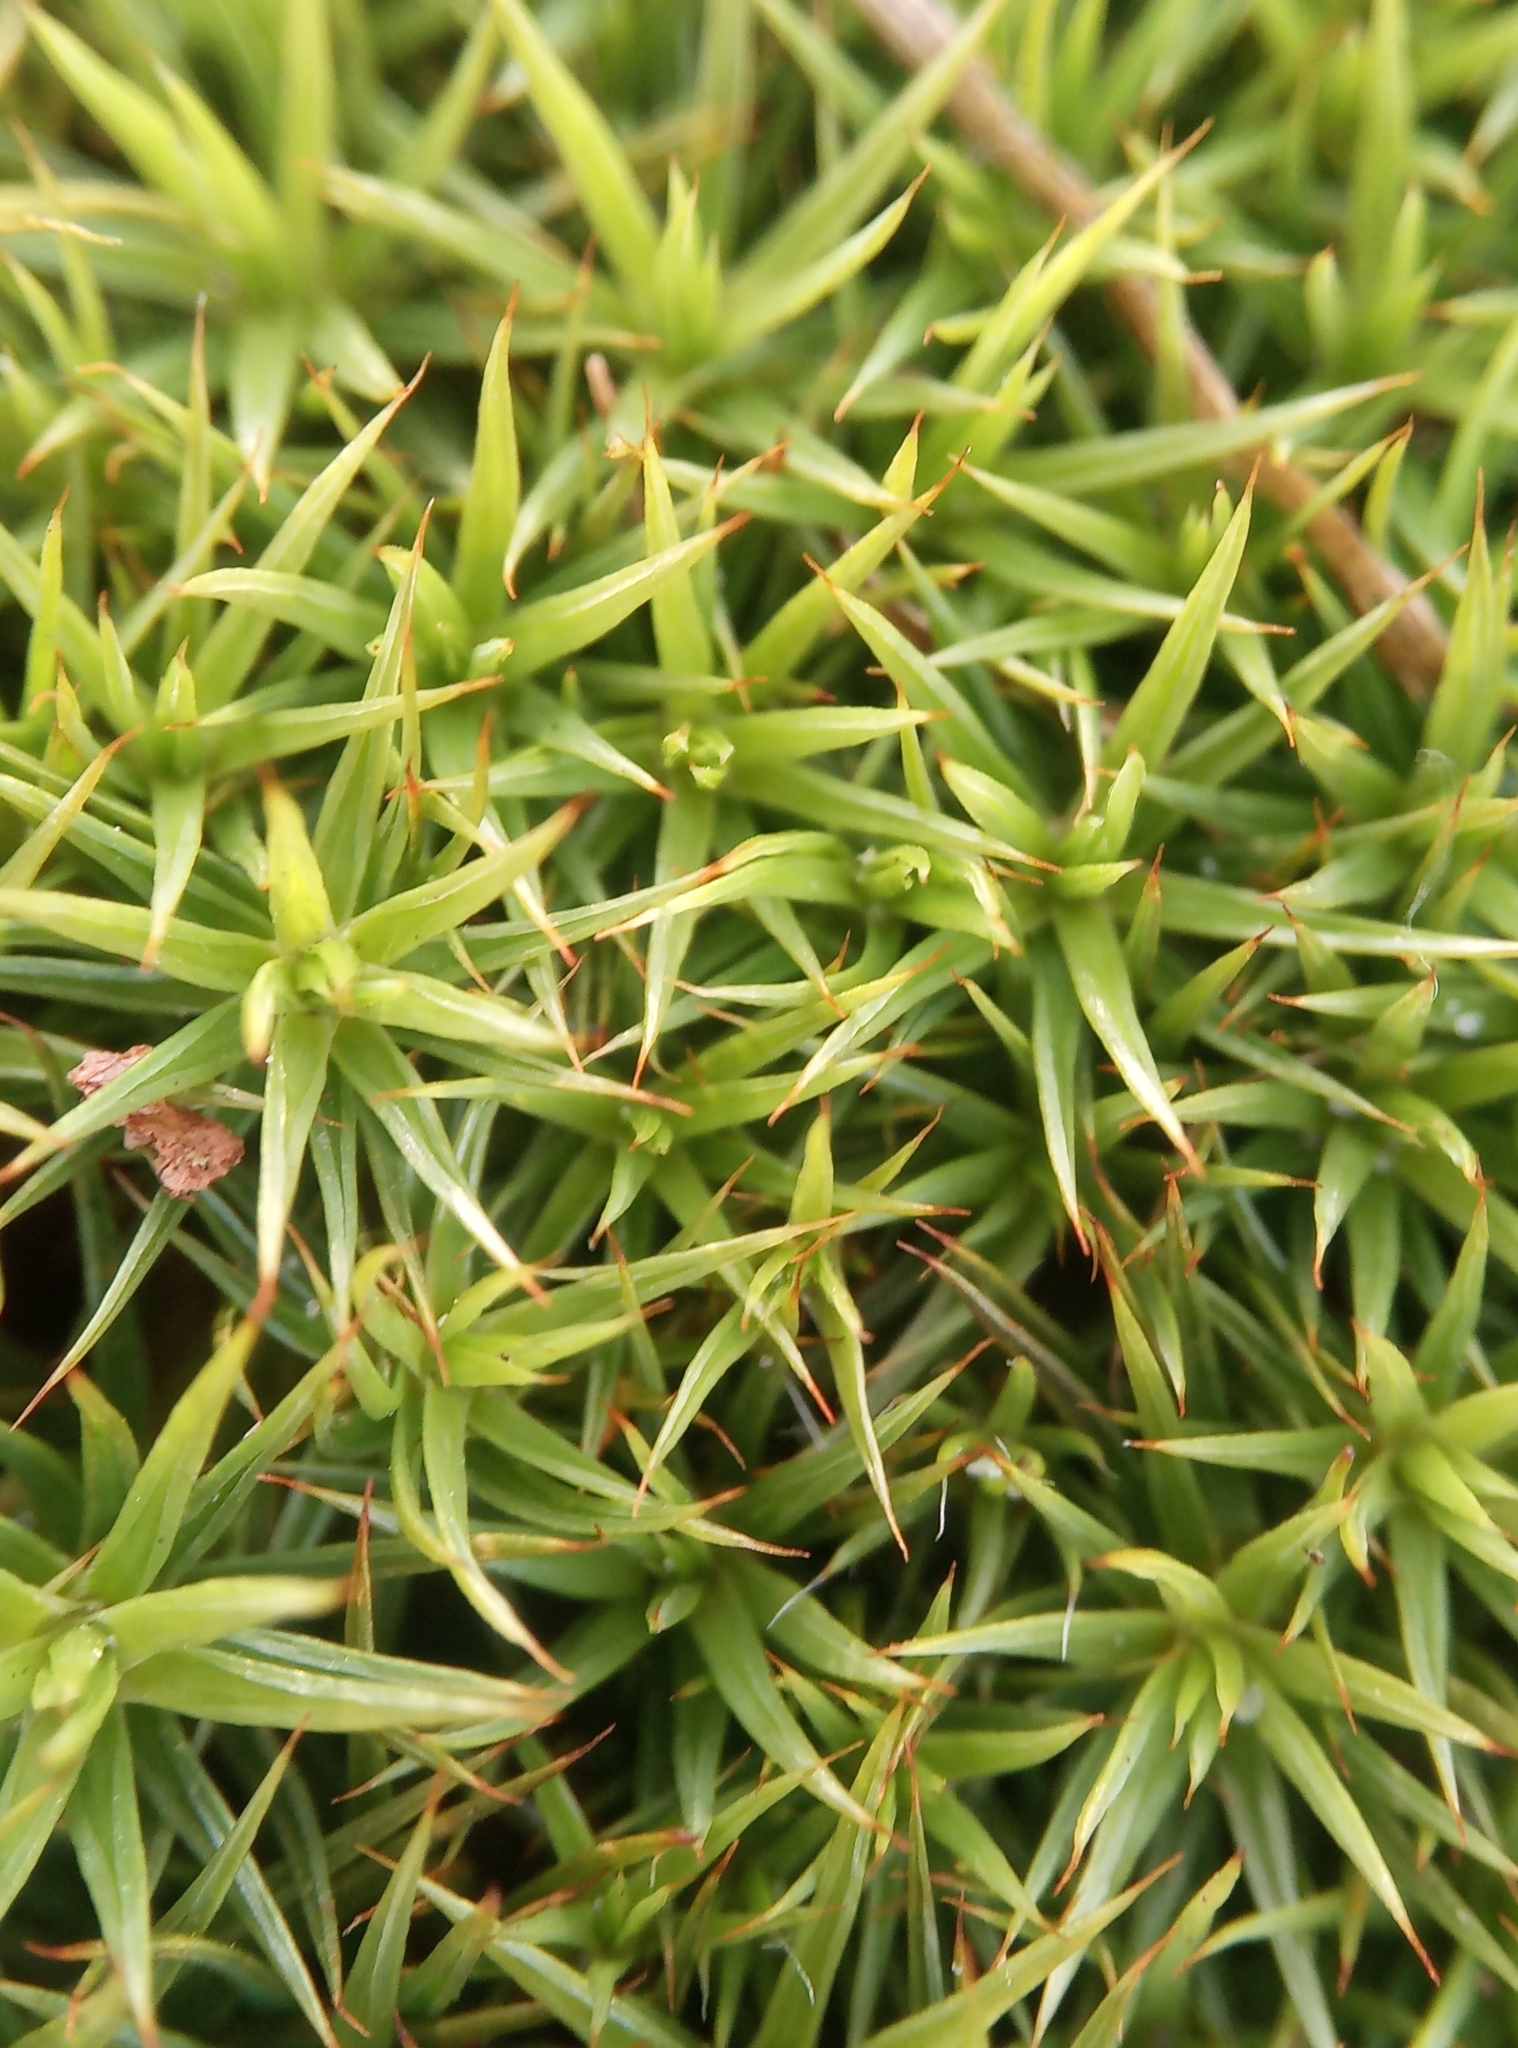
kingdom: Plantae
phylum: Bryophyta
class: Polytrichopsida
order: Polytrichales
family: Polytrichaceae
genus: Polytrichum
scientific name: Polytrichum juniperinum
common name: Juniper haircap moss
